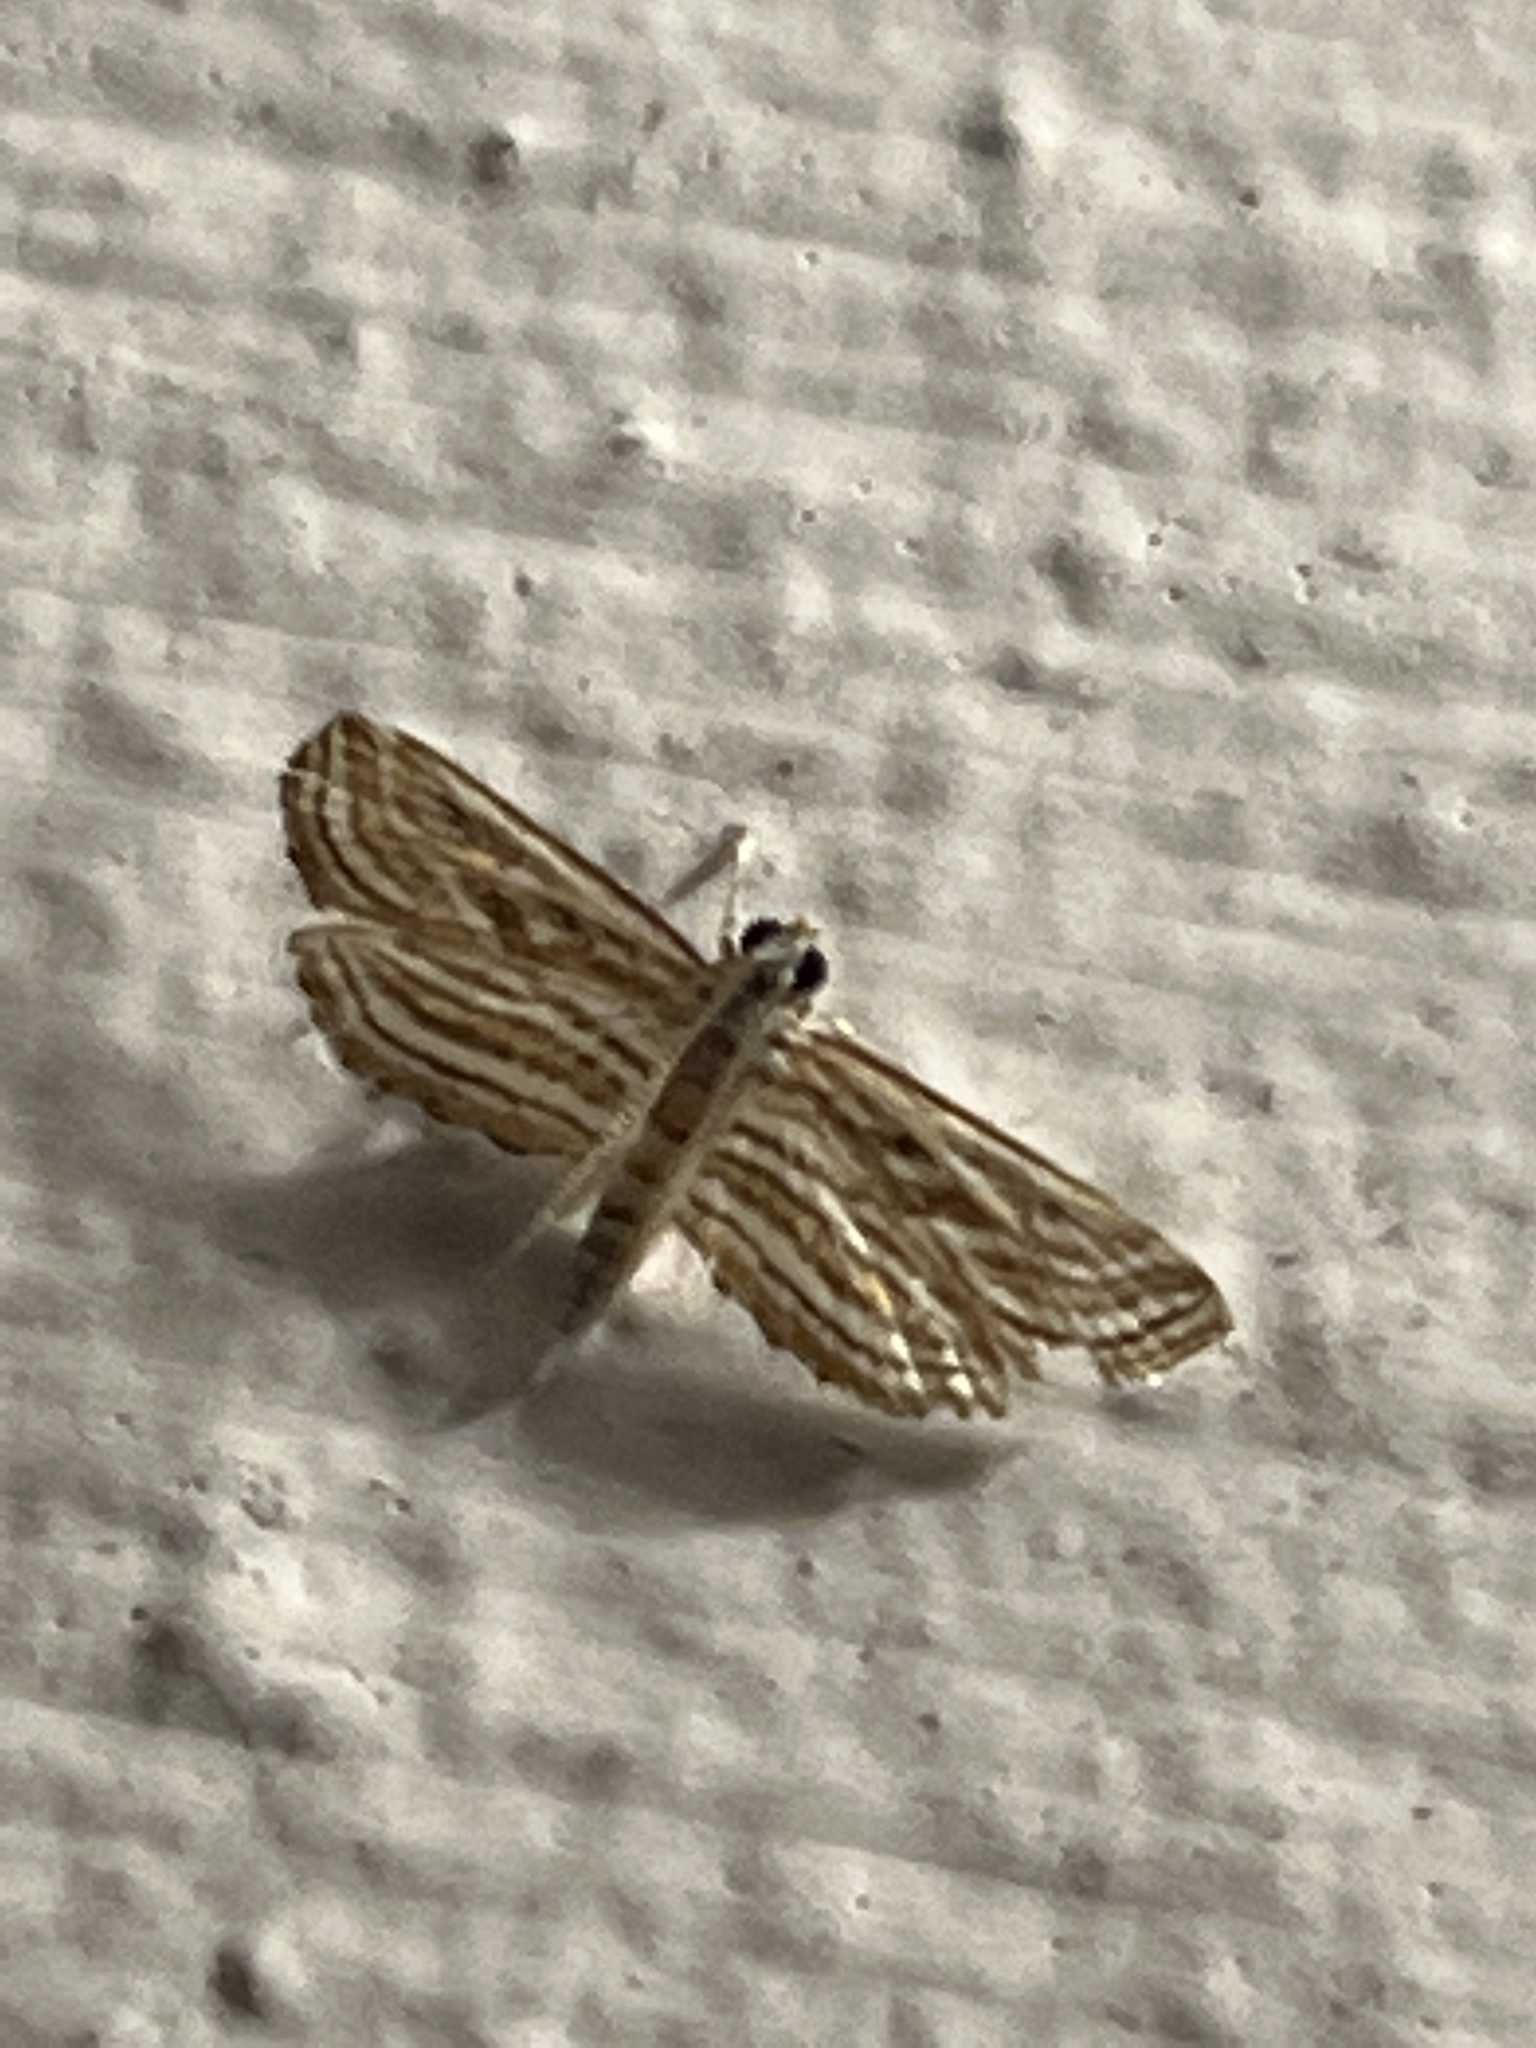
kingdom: Animalia
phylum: Arthropoda
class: Insecta
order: Lepidoptera
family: Crambidae
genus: Parapoynx
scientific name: Parapoynx fluctuosalis
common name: Moth
